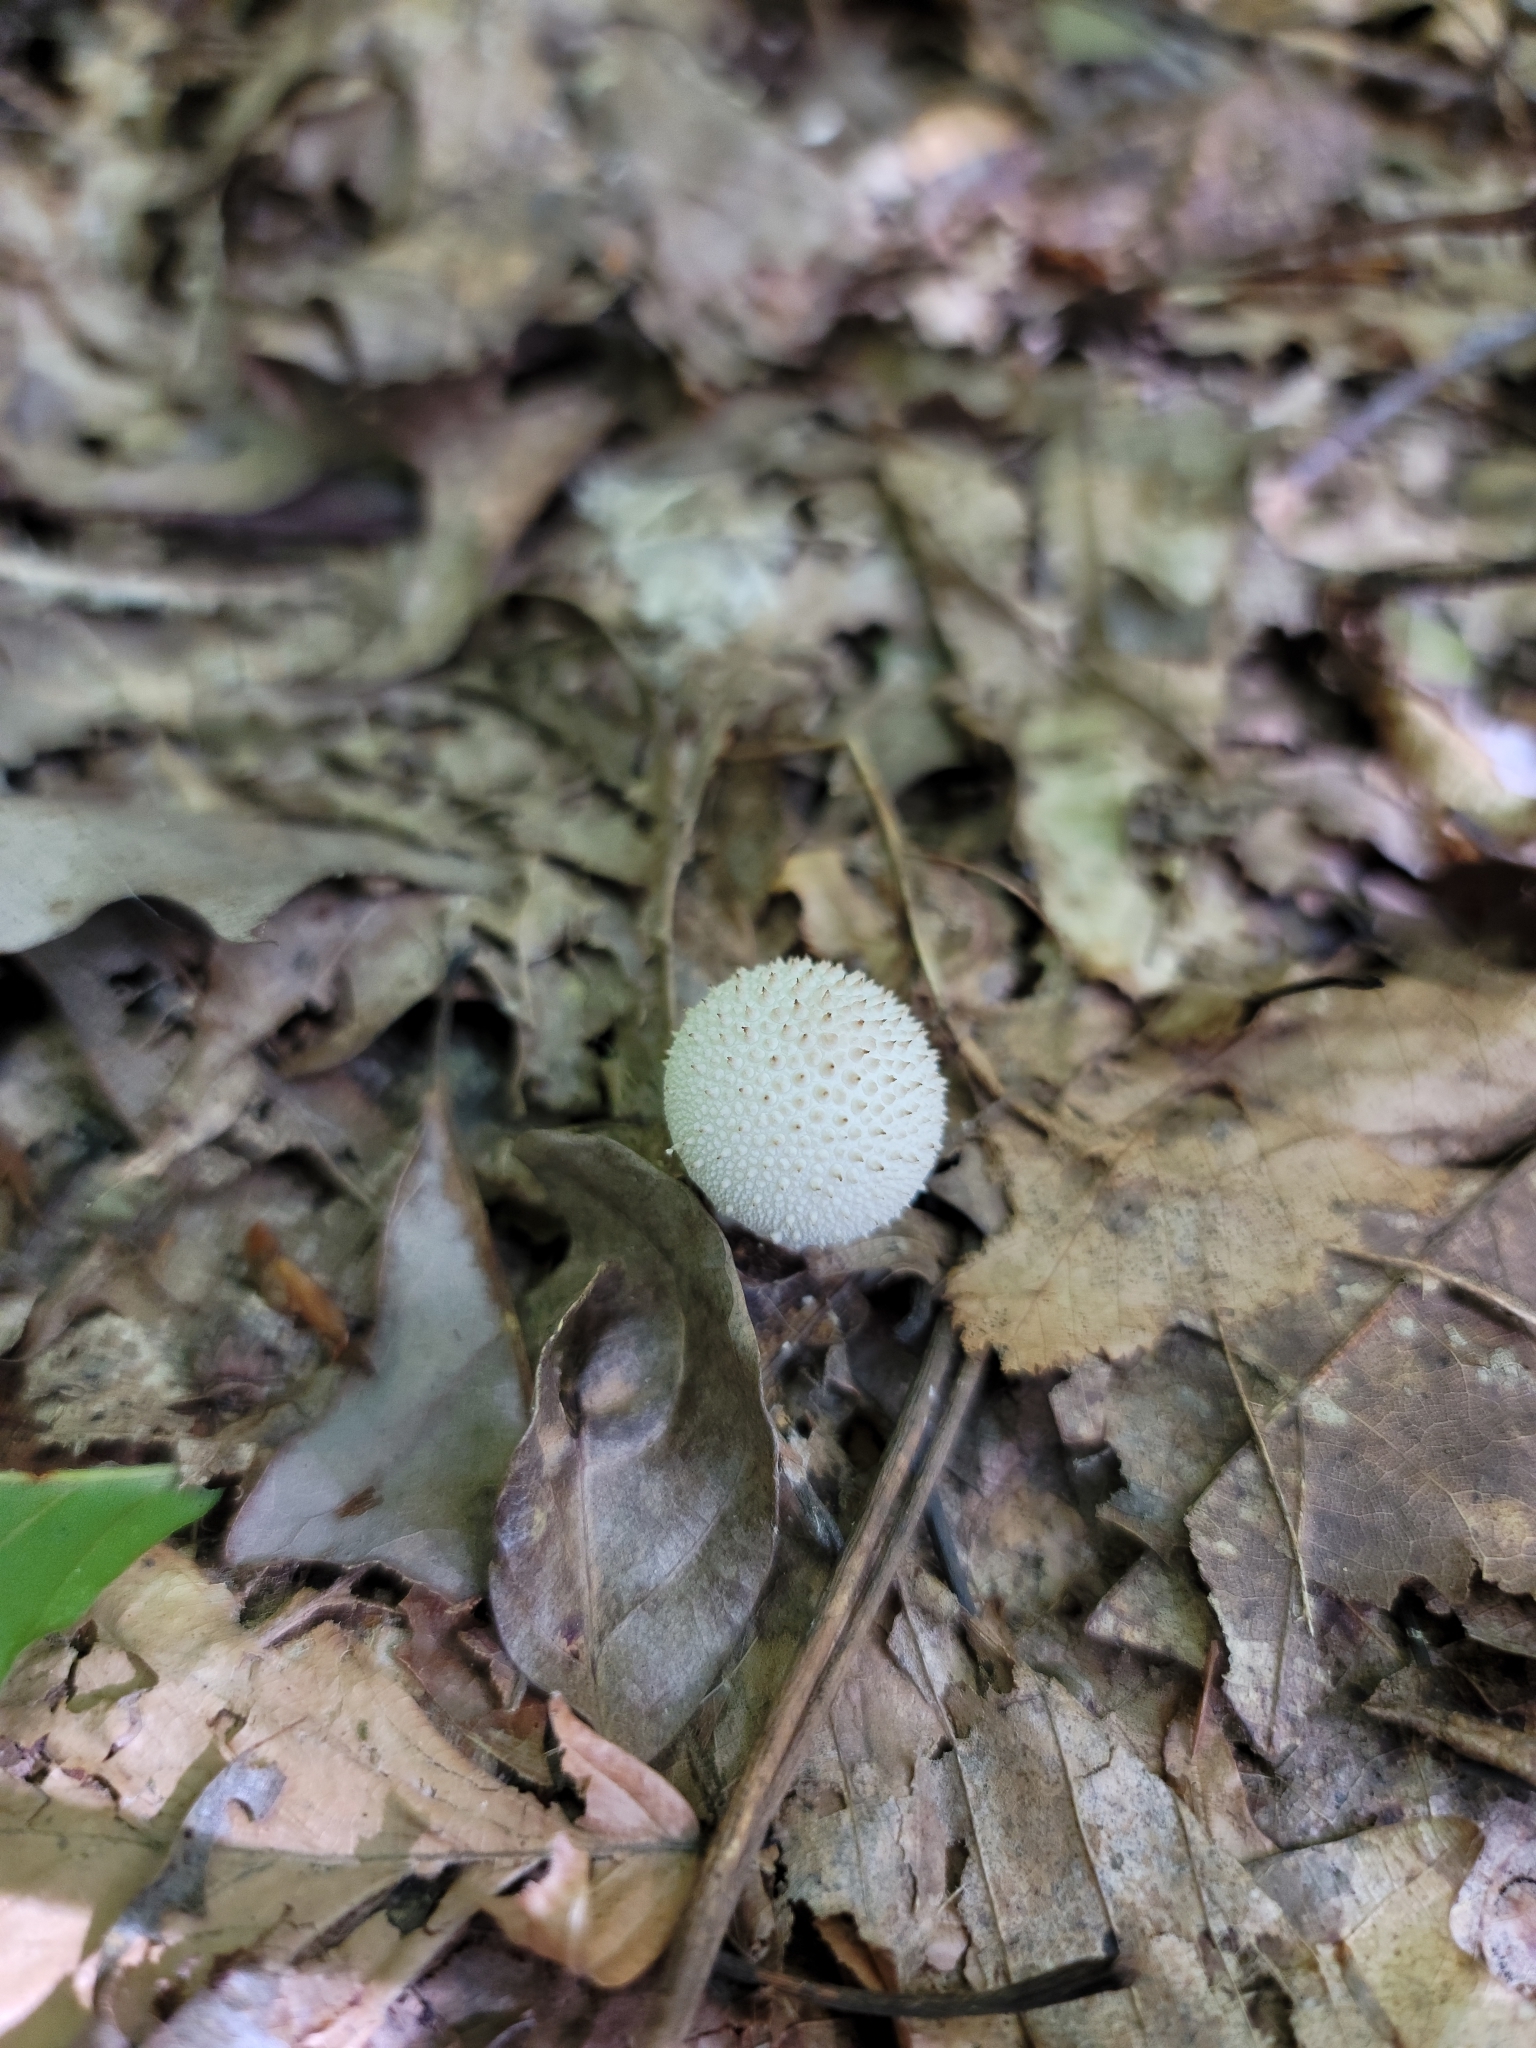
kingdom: Fungi
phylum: Basidiomycota
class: Agaricomycetes
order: Agaricales
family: Lycoperdaceae
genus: Lycoperdon
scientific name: Lycoperdon perlatum
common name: Common puffball
